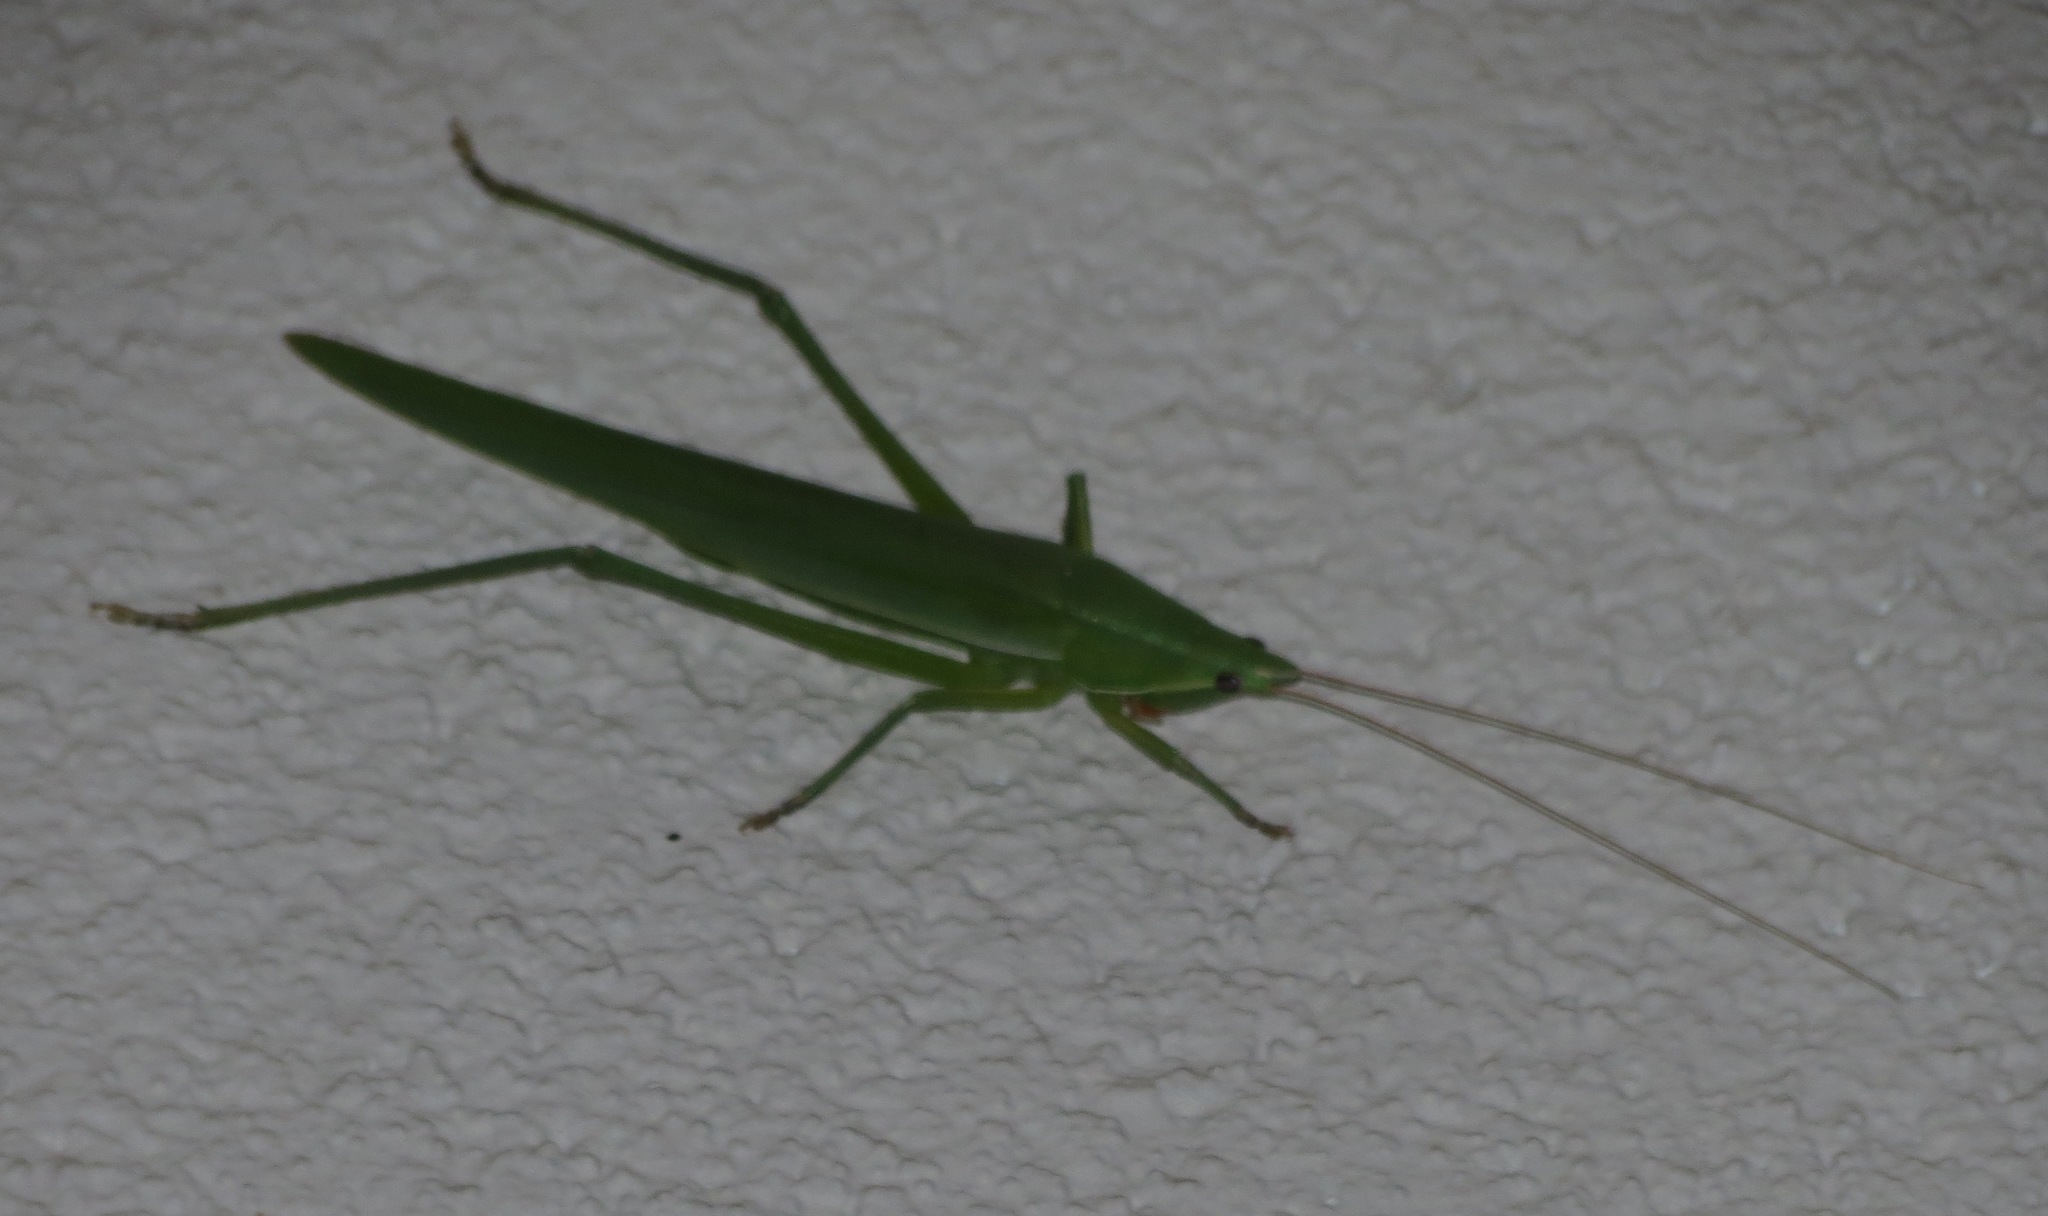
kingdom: Animalia
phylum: Arthropoda
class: Insecta
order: Orthoptera
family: Tettigoniidae
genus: Euconocephalus
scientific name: Euconocephalus nasutus
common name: Grasshopper
